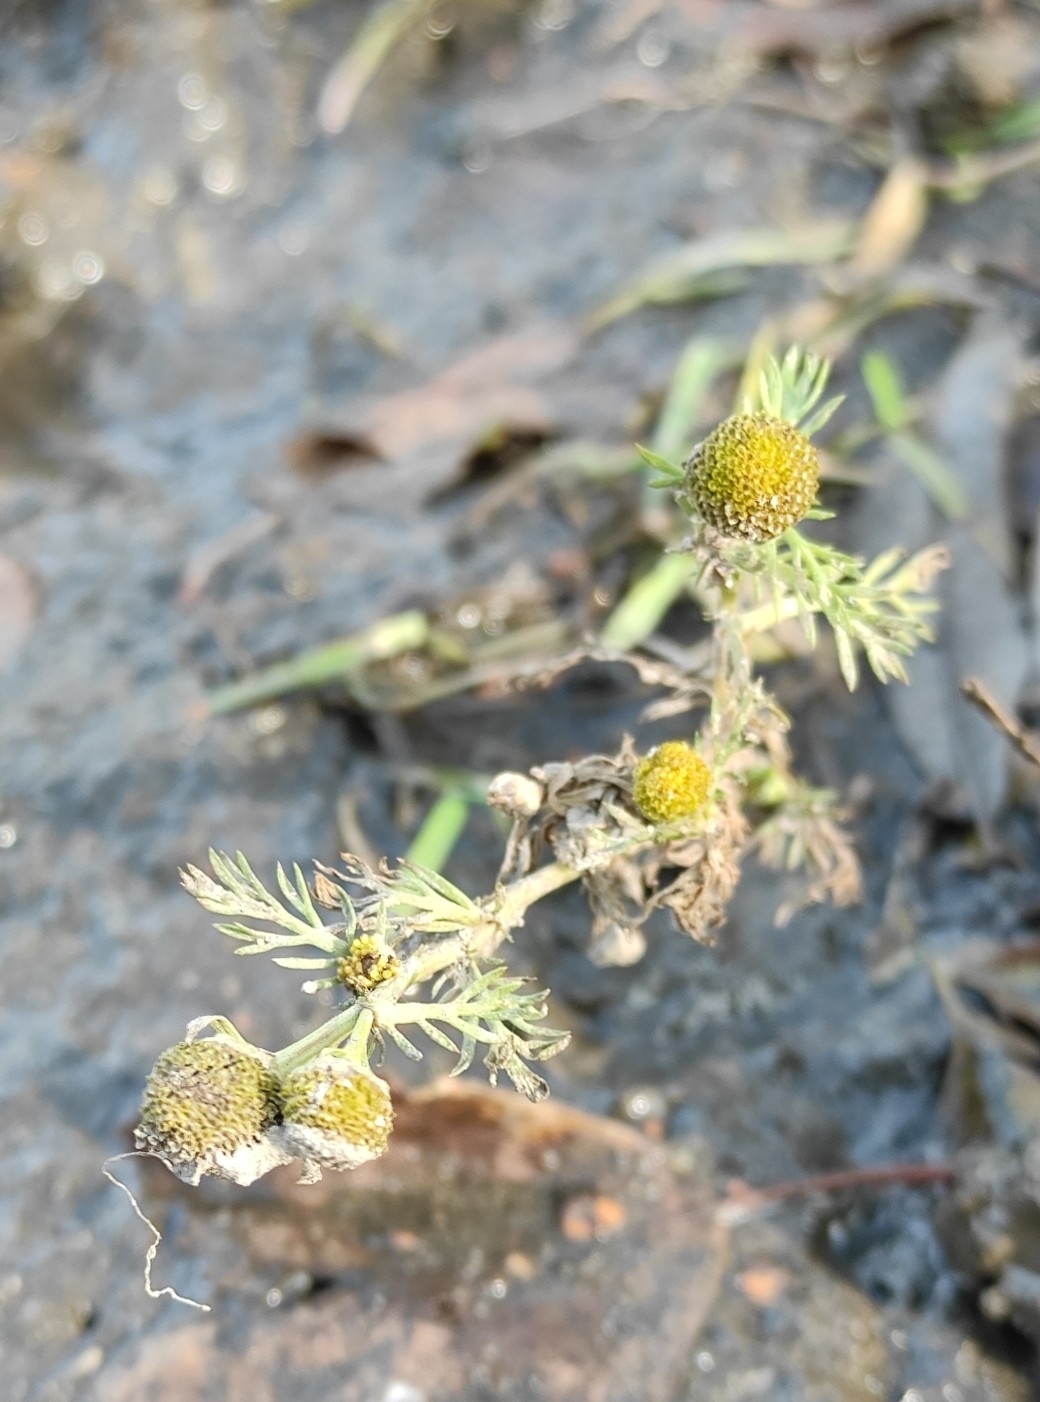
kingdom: Plantae
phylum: Tracheophyta
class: Magnoliopsida
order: Asterales
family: Asteraceae
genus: Matricaria
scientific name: Matricaria discoidea
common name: Disc mayweed
